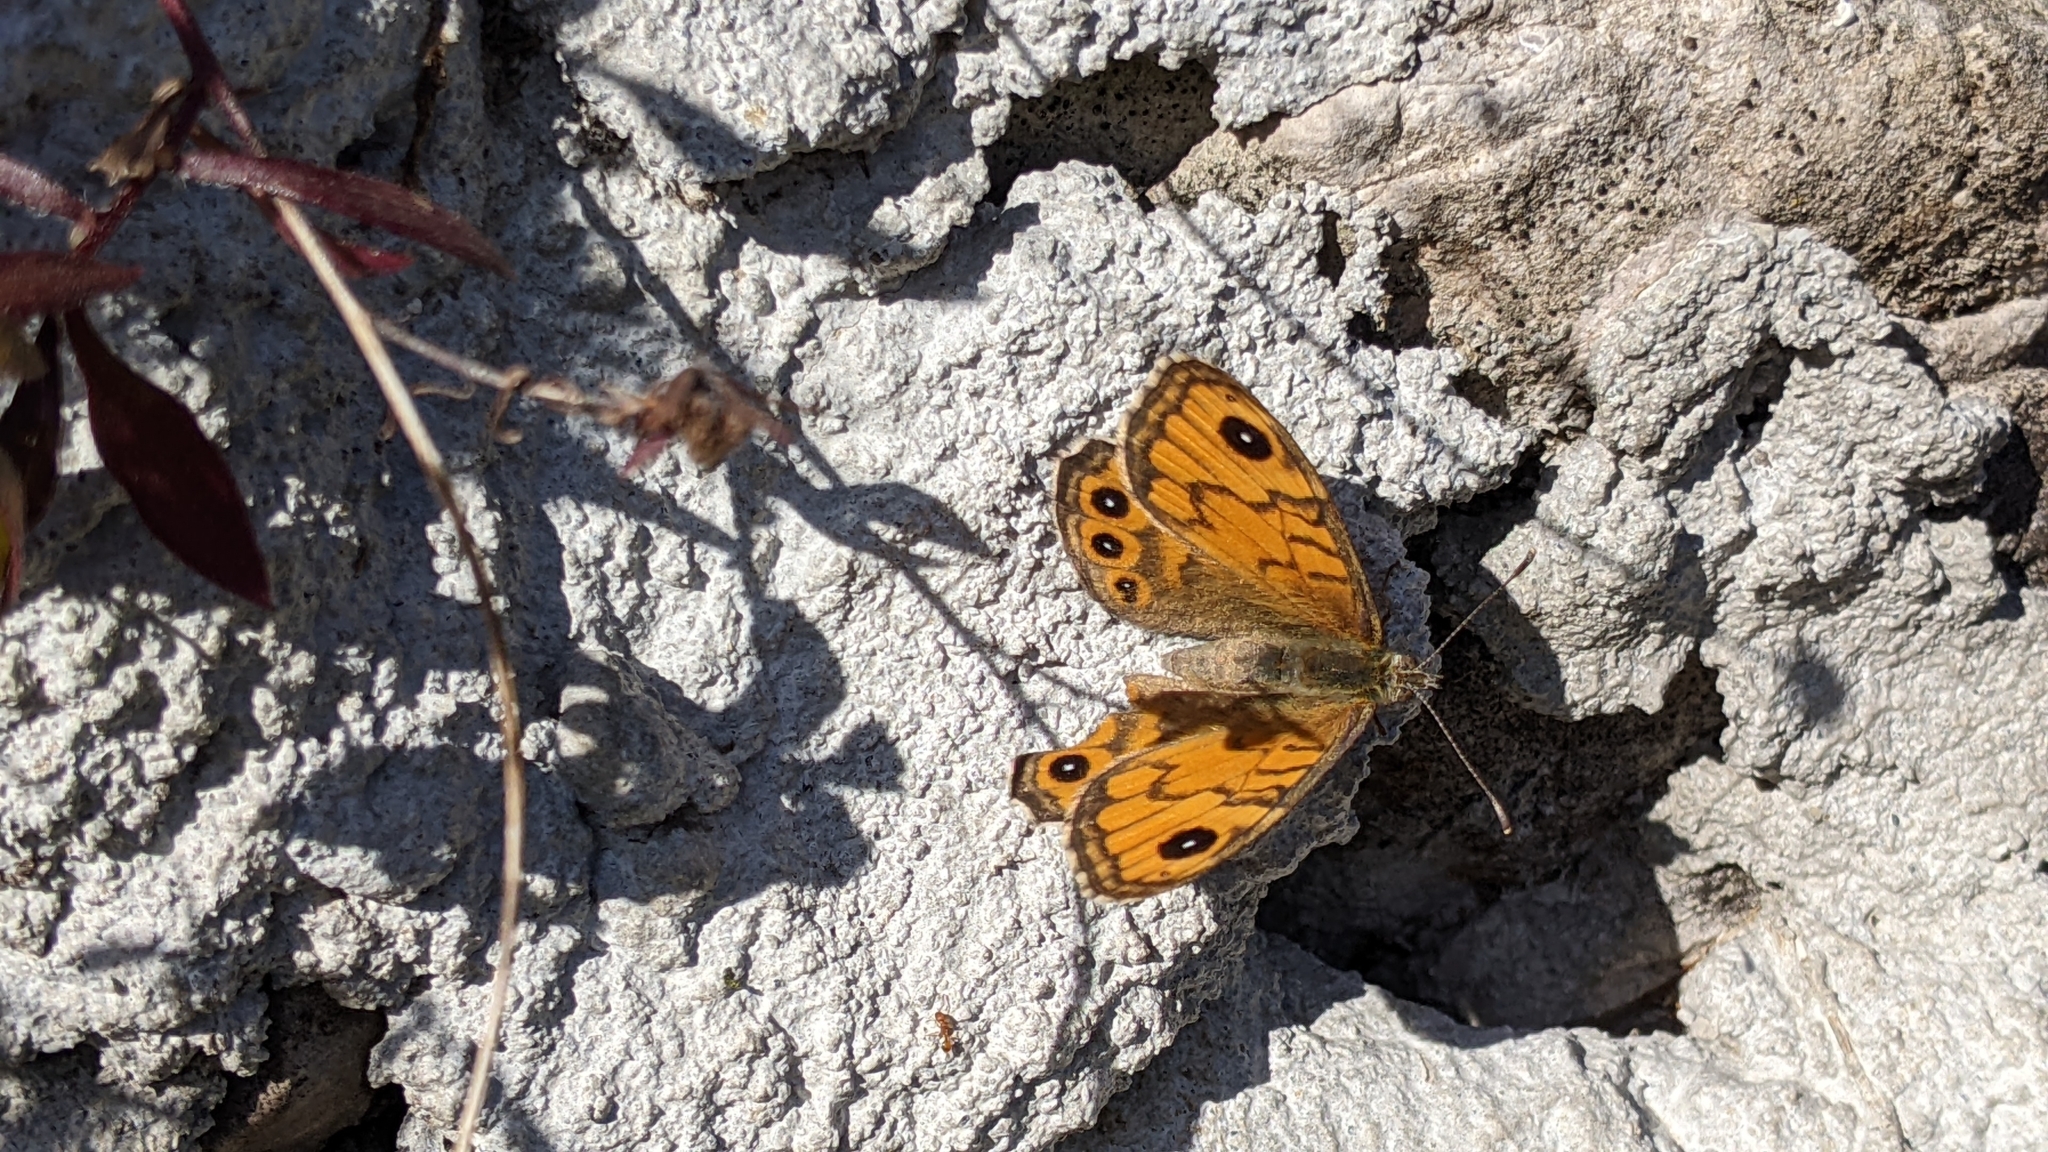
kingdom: Animalia
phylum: Arthropoda
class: Insecta
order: Lepidoptera
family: Nymphalidae
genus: Pararge
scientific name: Pararge Lasiommata megera
